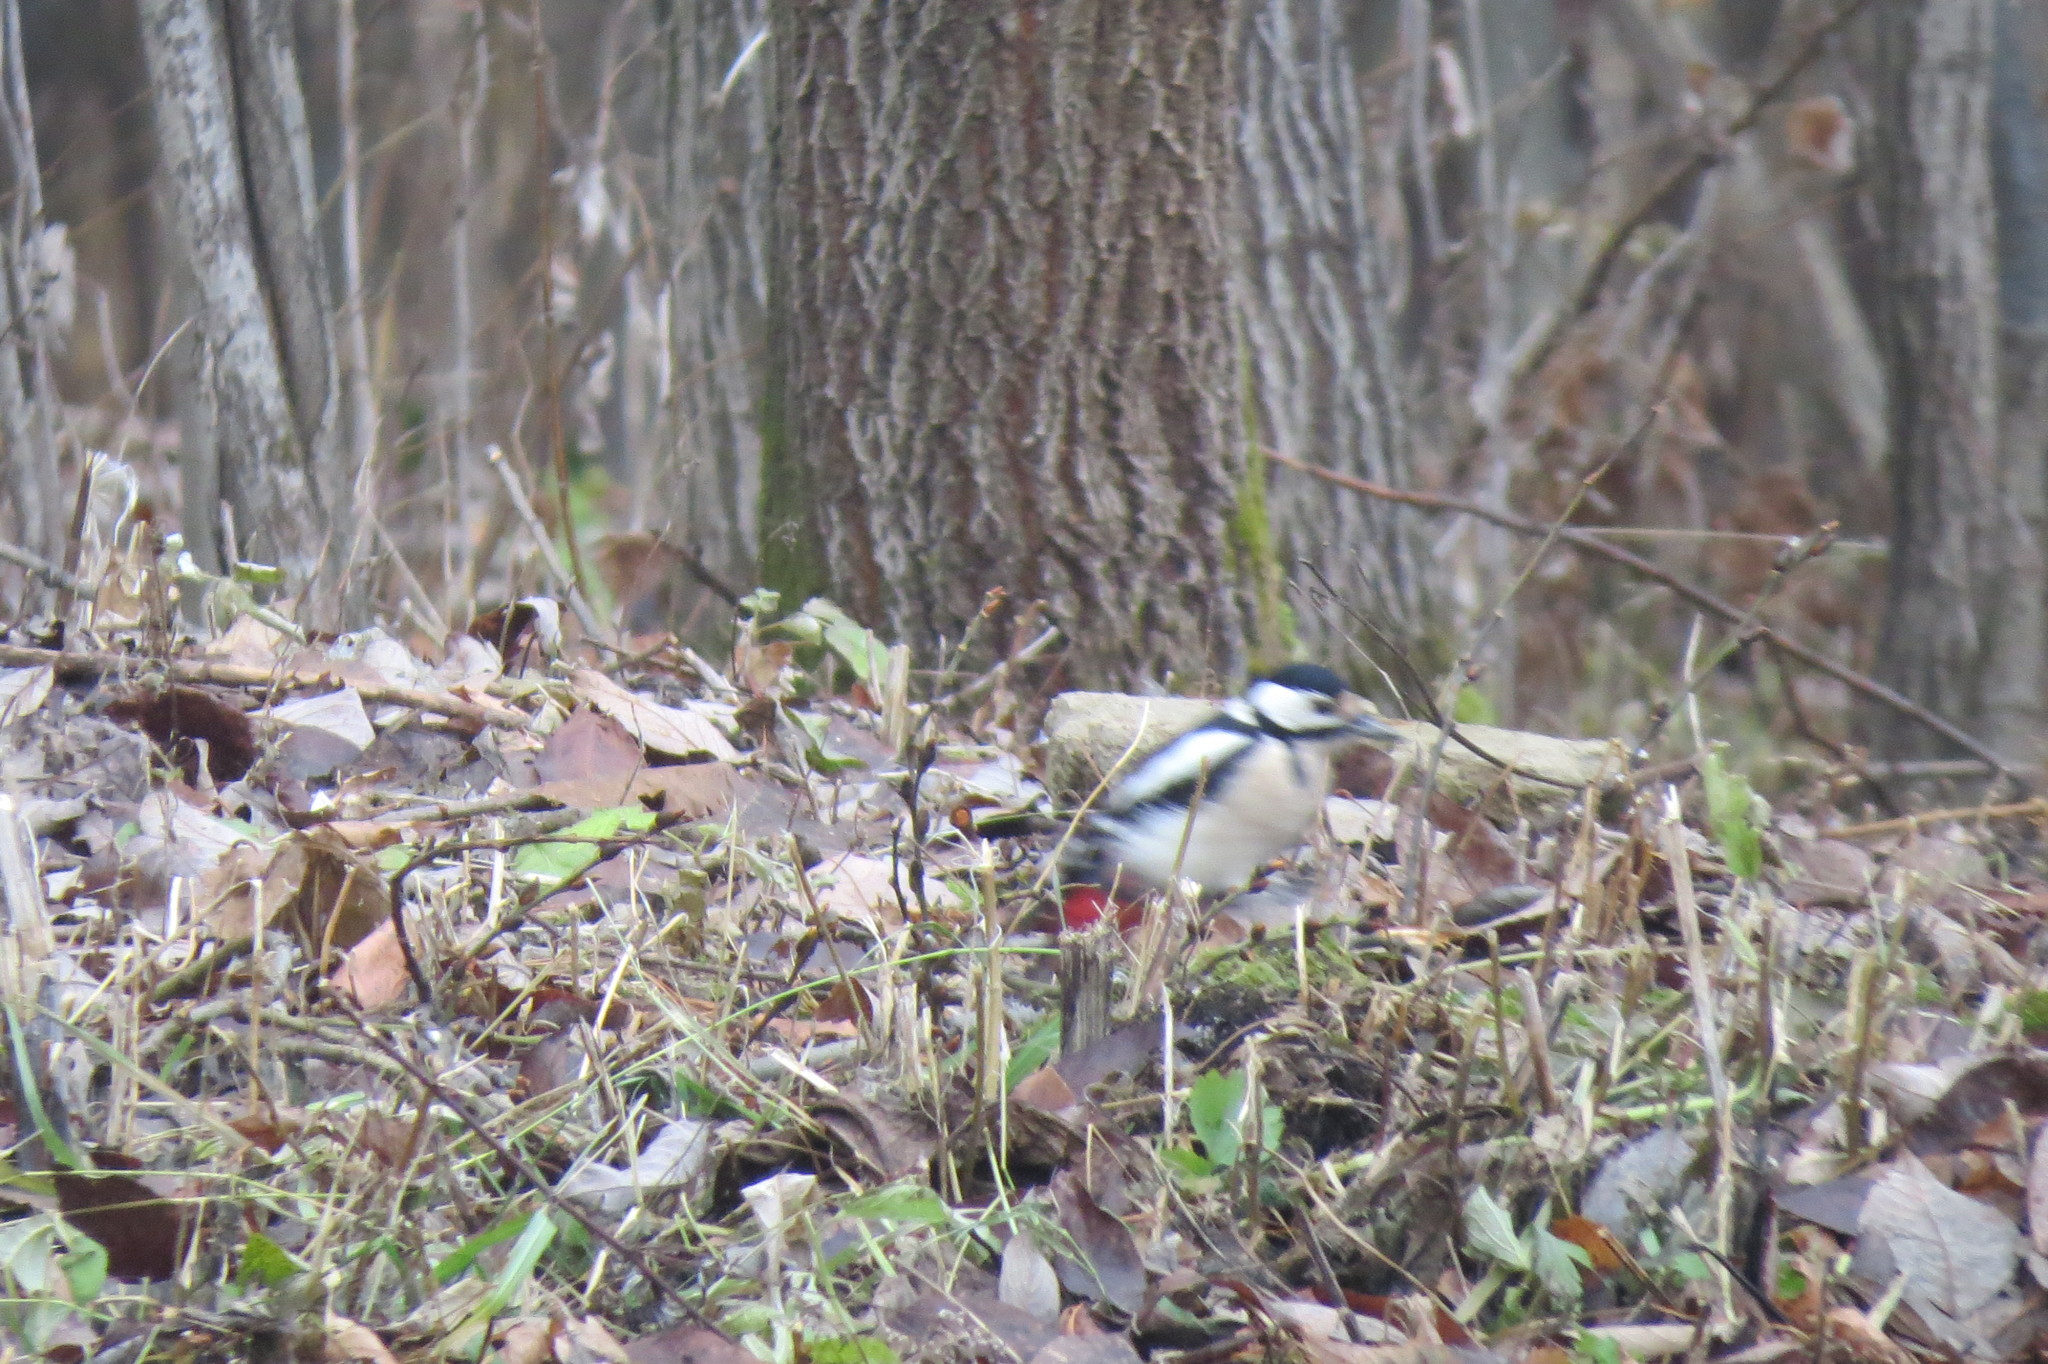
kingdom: Animalia
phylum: Chordata
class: Aves
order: Piciformes
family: Picidae
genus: Dendrocopos
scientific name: Dendrocopos major
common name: Great spotted woodpecker
